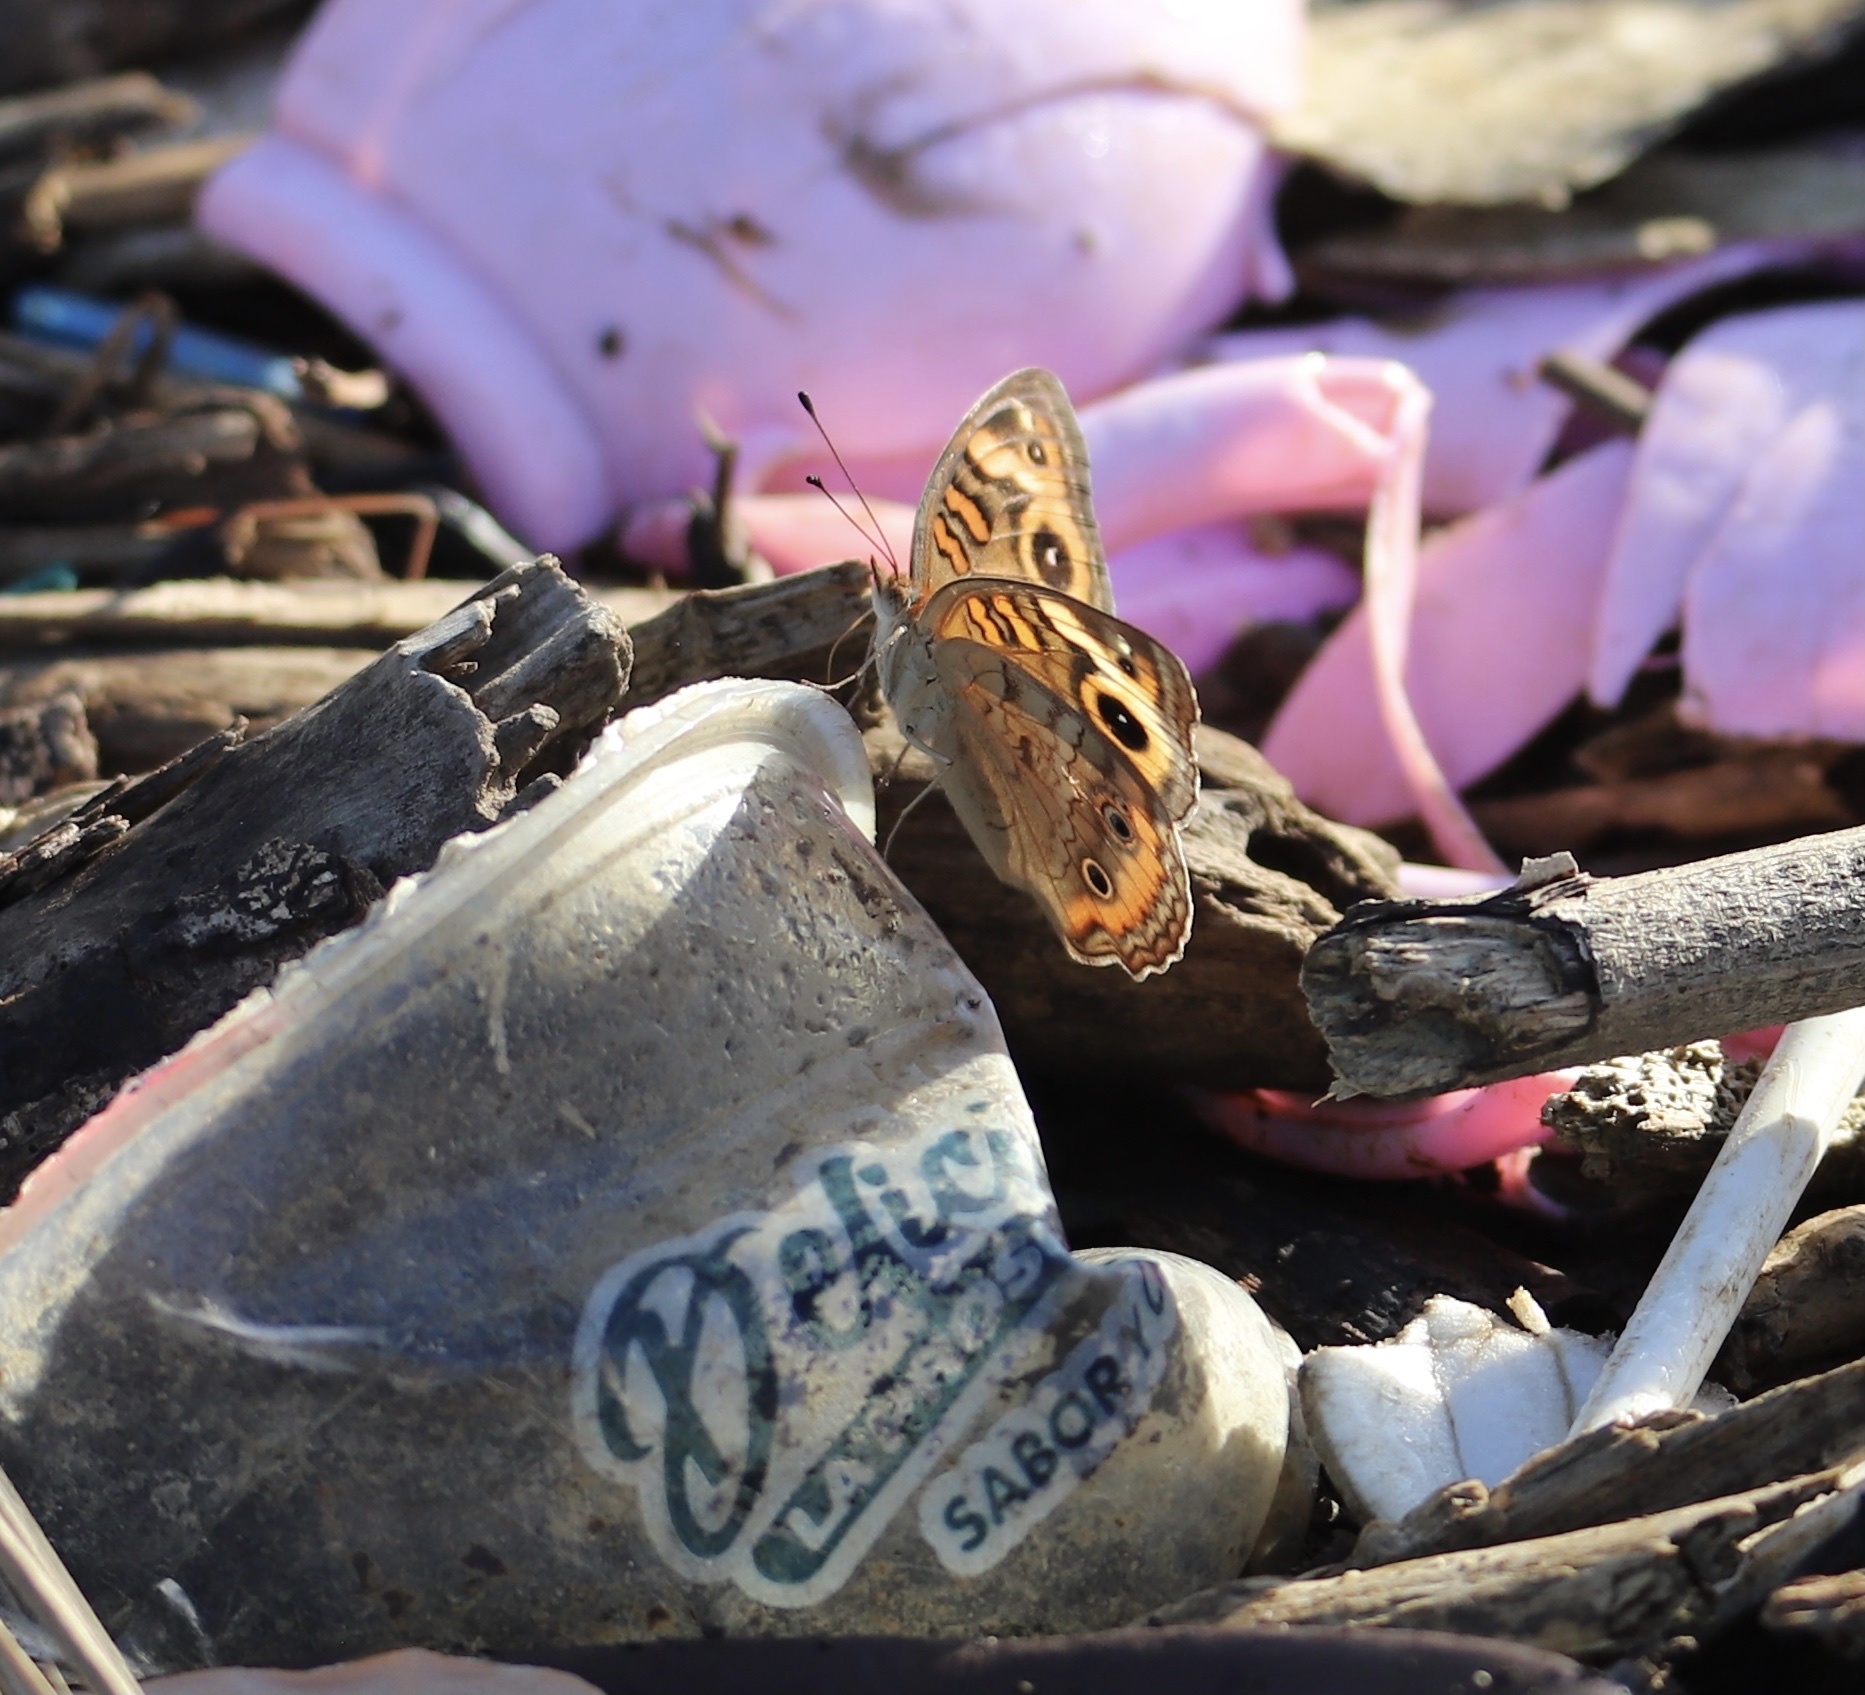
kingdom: Animalia
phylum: Arthropoda
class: Insecta
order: Lepidoptera
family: Nymphalidae
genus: Junonia
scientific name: Junonia lavinia
